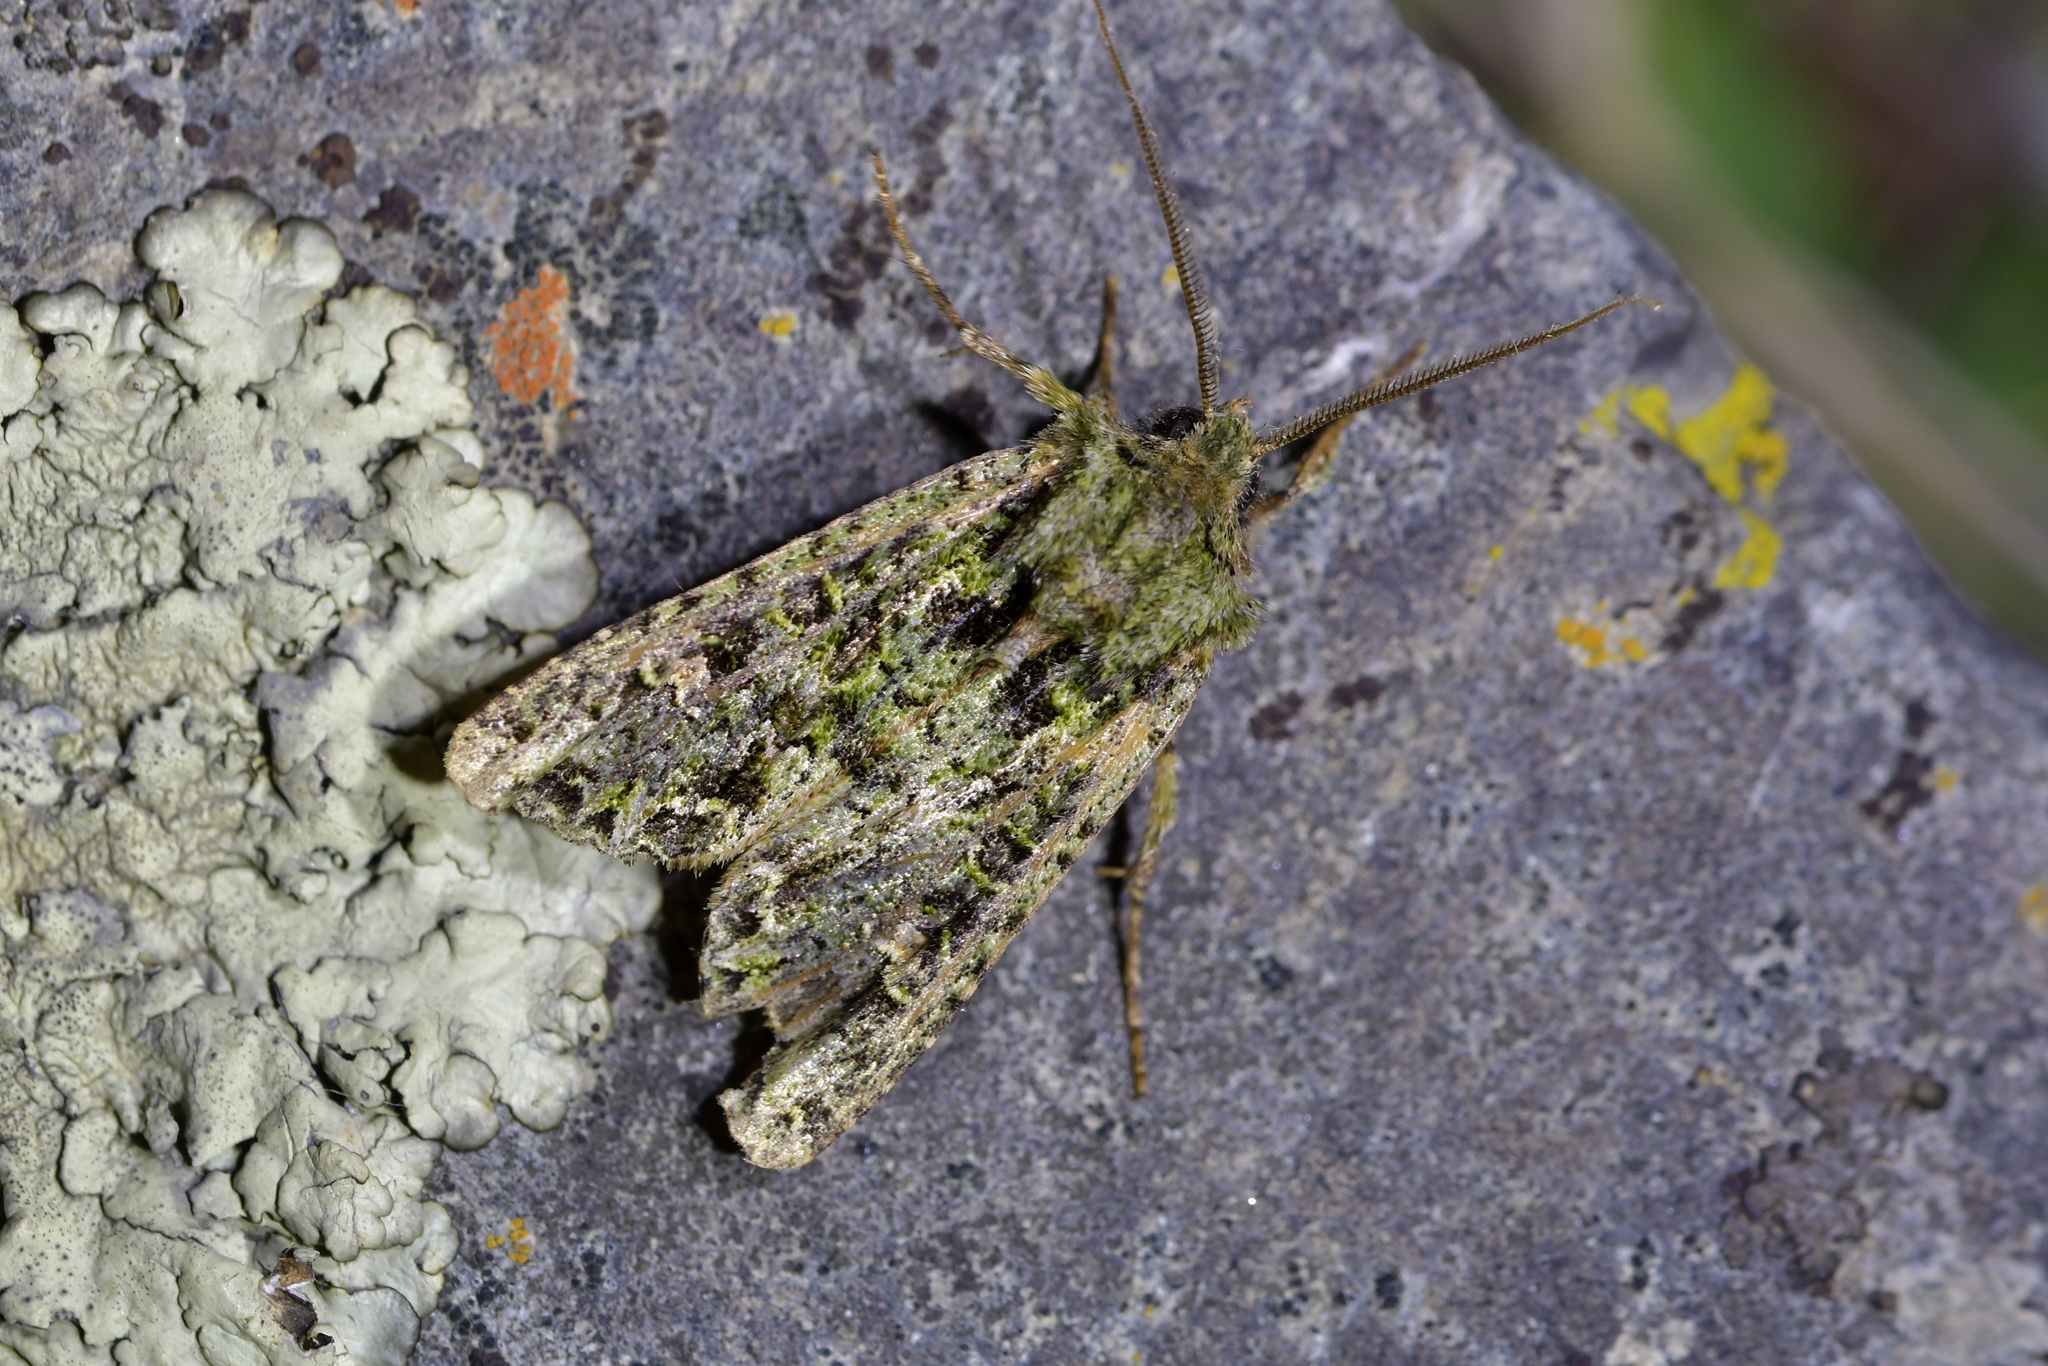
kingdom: Animalia
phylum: Arthropoda
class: Insecta
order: Lepidoptera
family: Noctuidae
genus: Ichneutica
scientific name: Ichneutica
